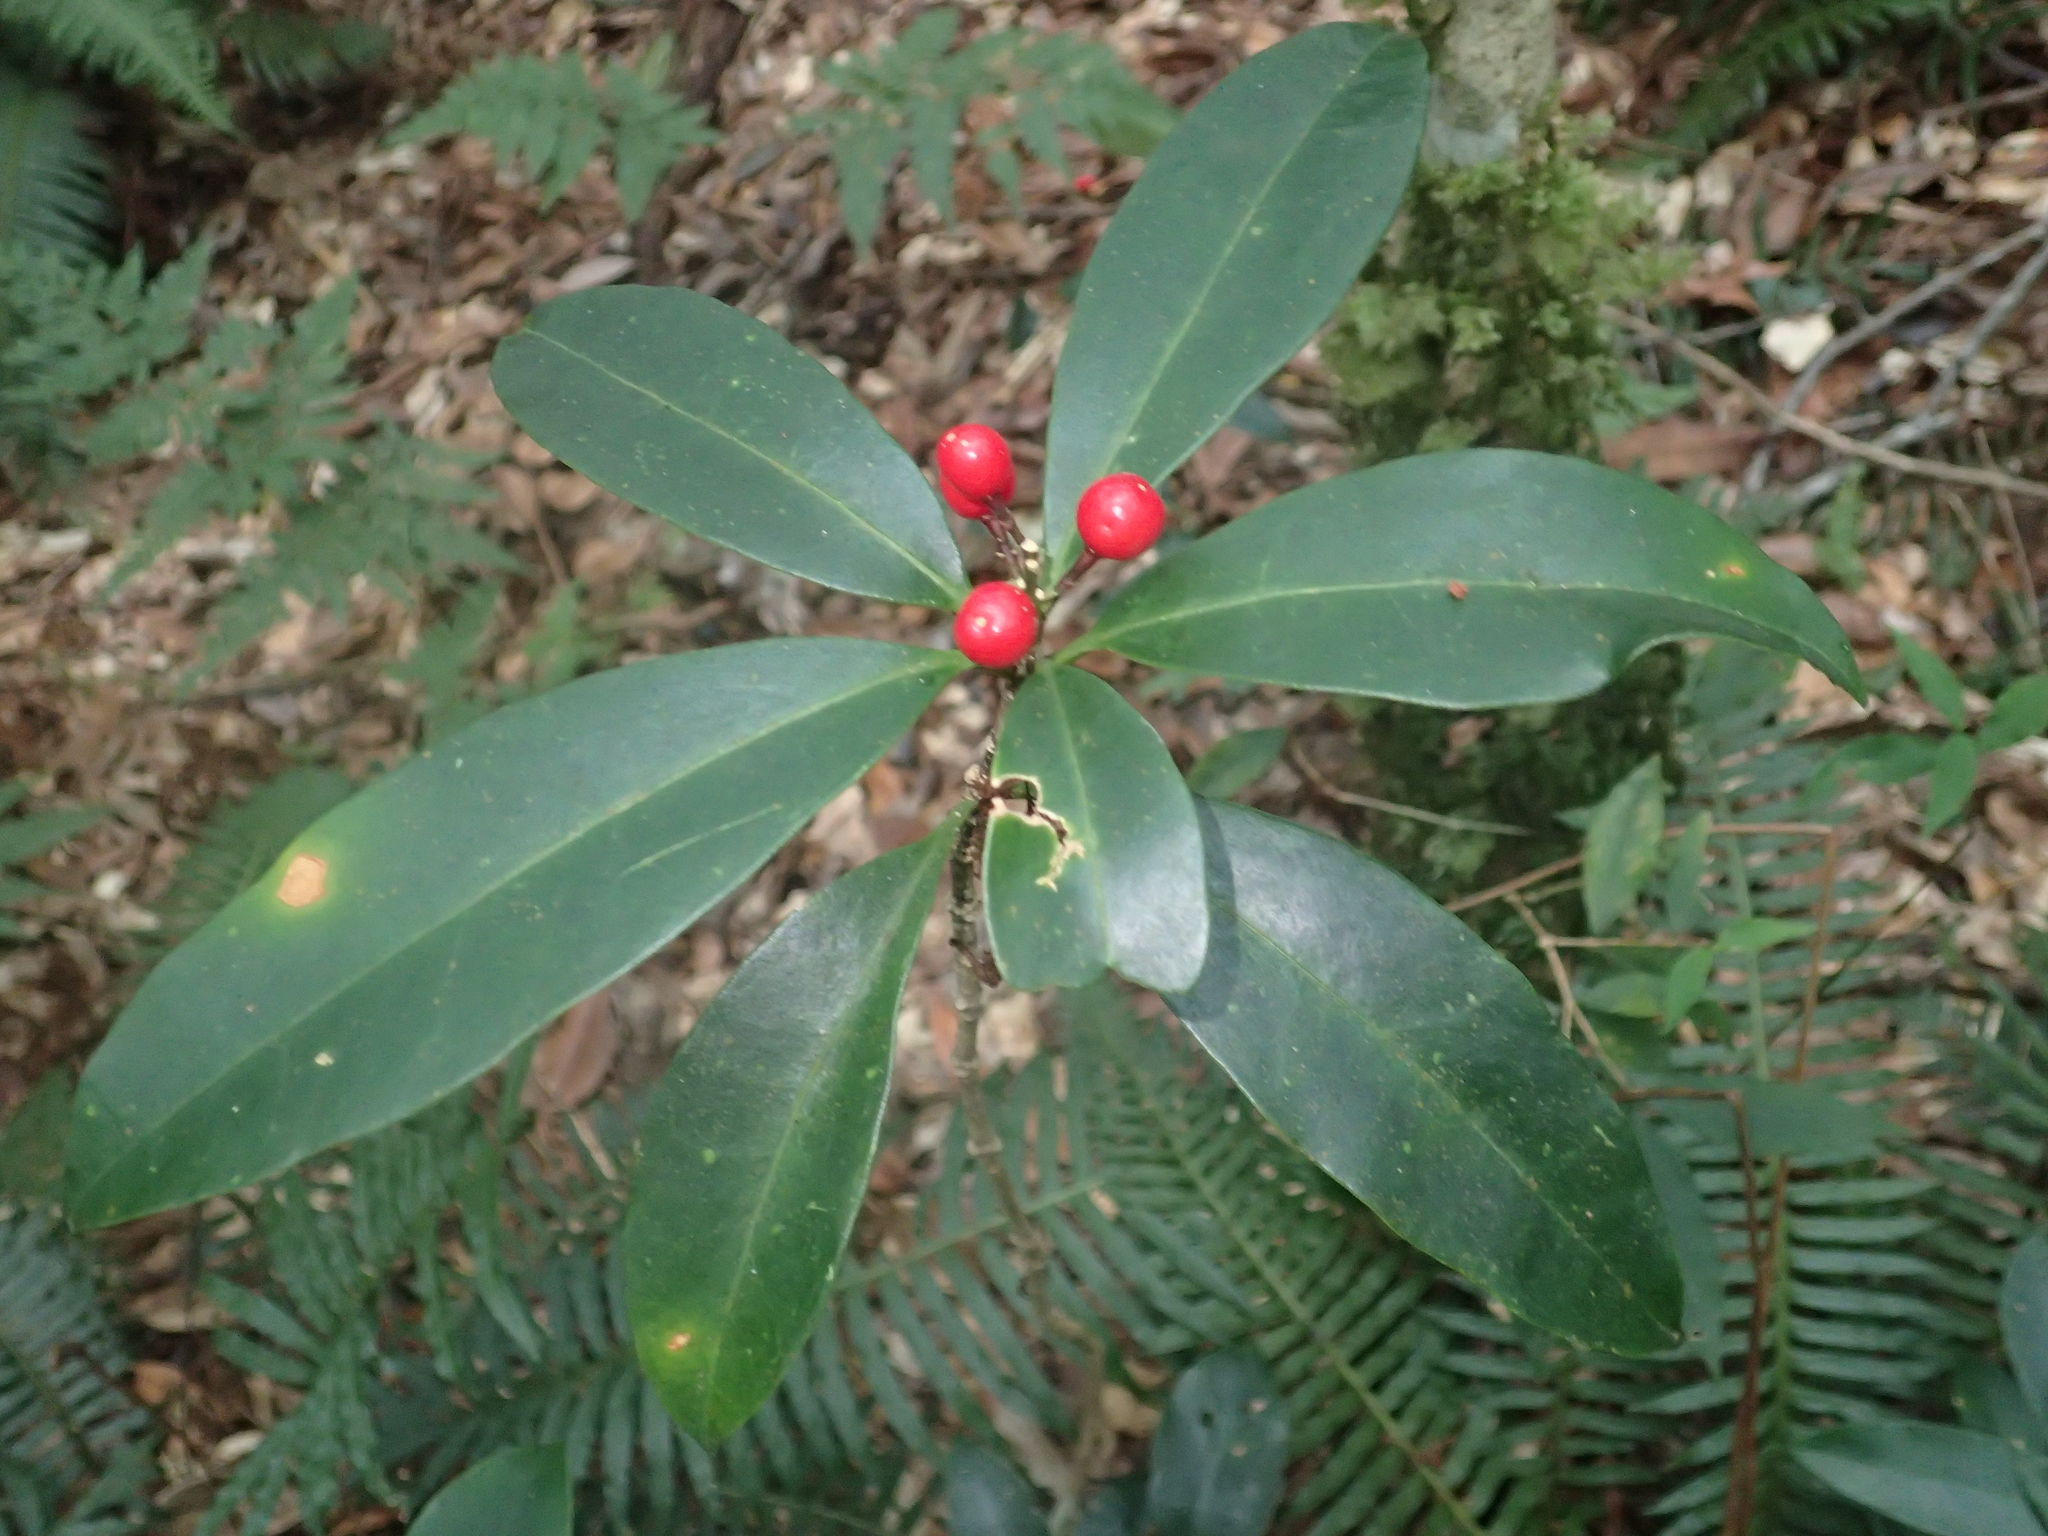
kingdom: Plantae
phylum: Tracheophyta
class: Magnoliopsida
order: Sapindales
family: Rutaceae
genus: Skimmia
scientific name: Skimmia japonica
